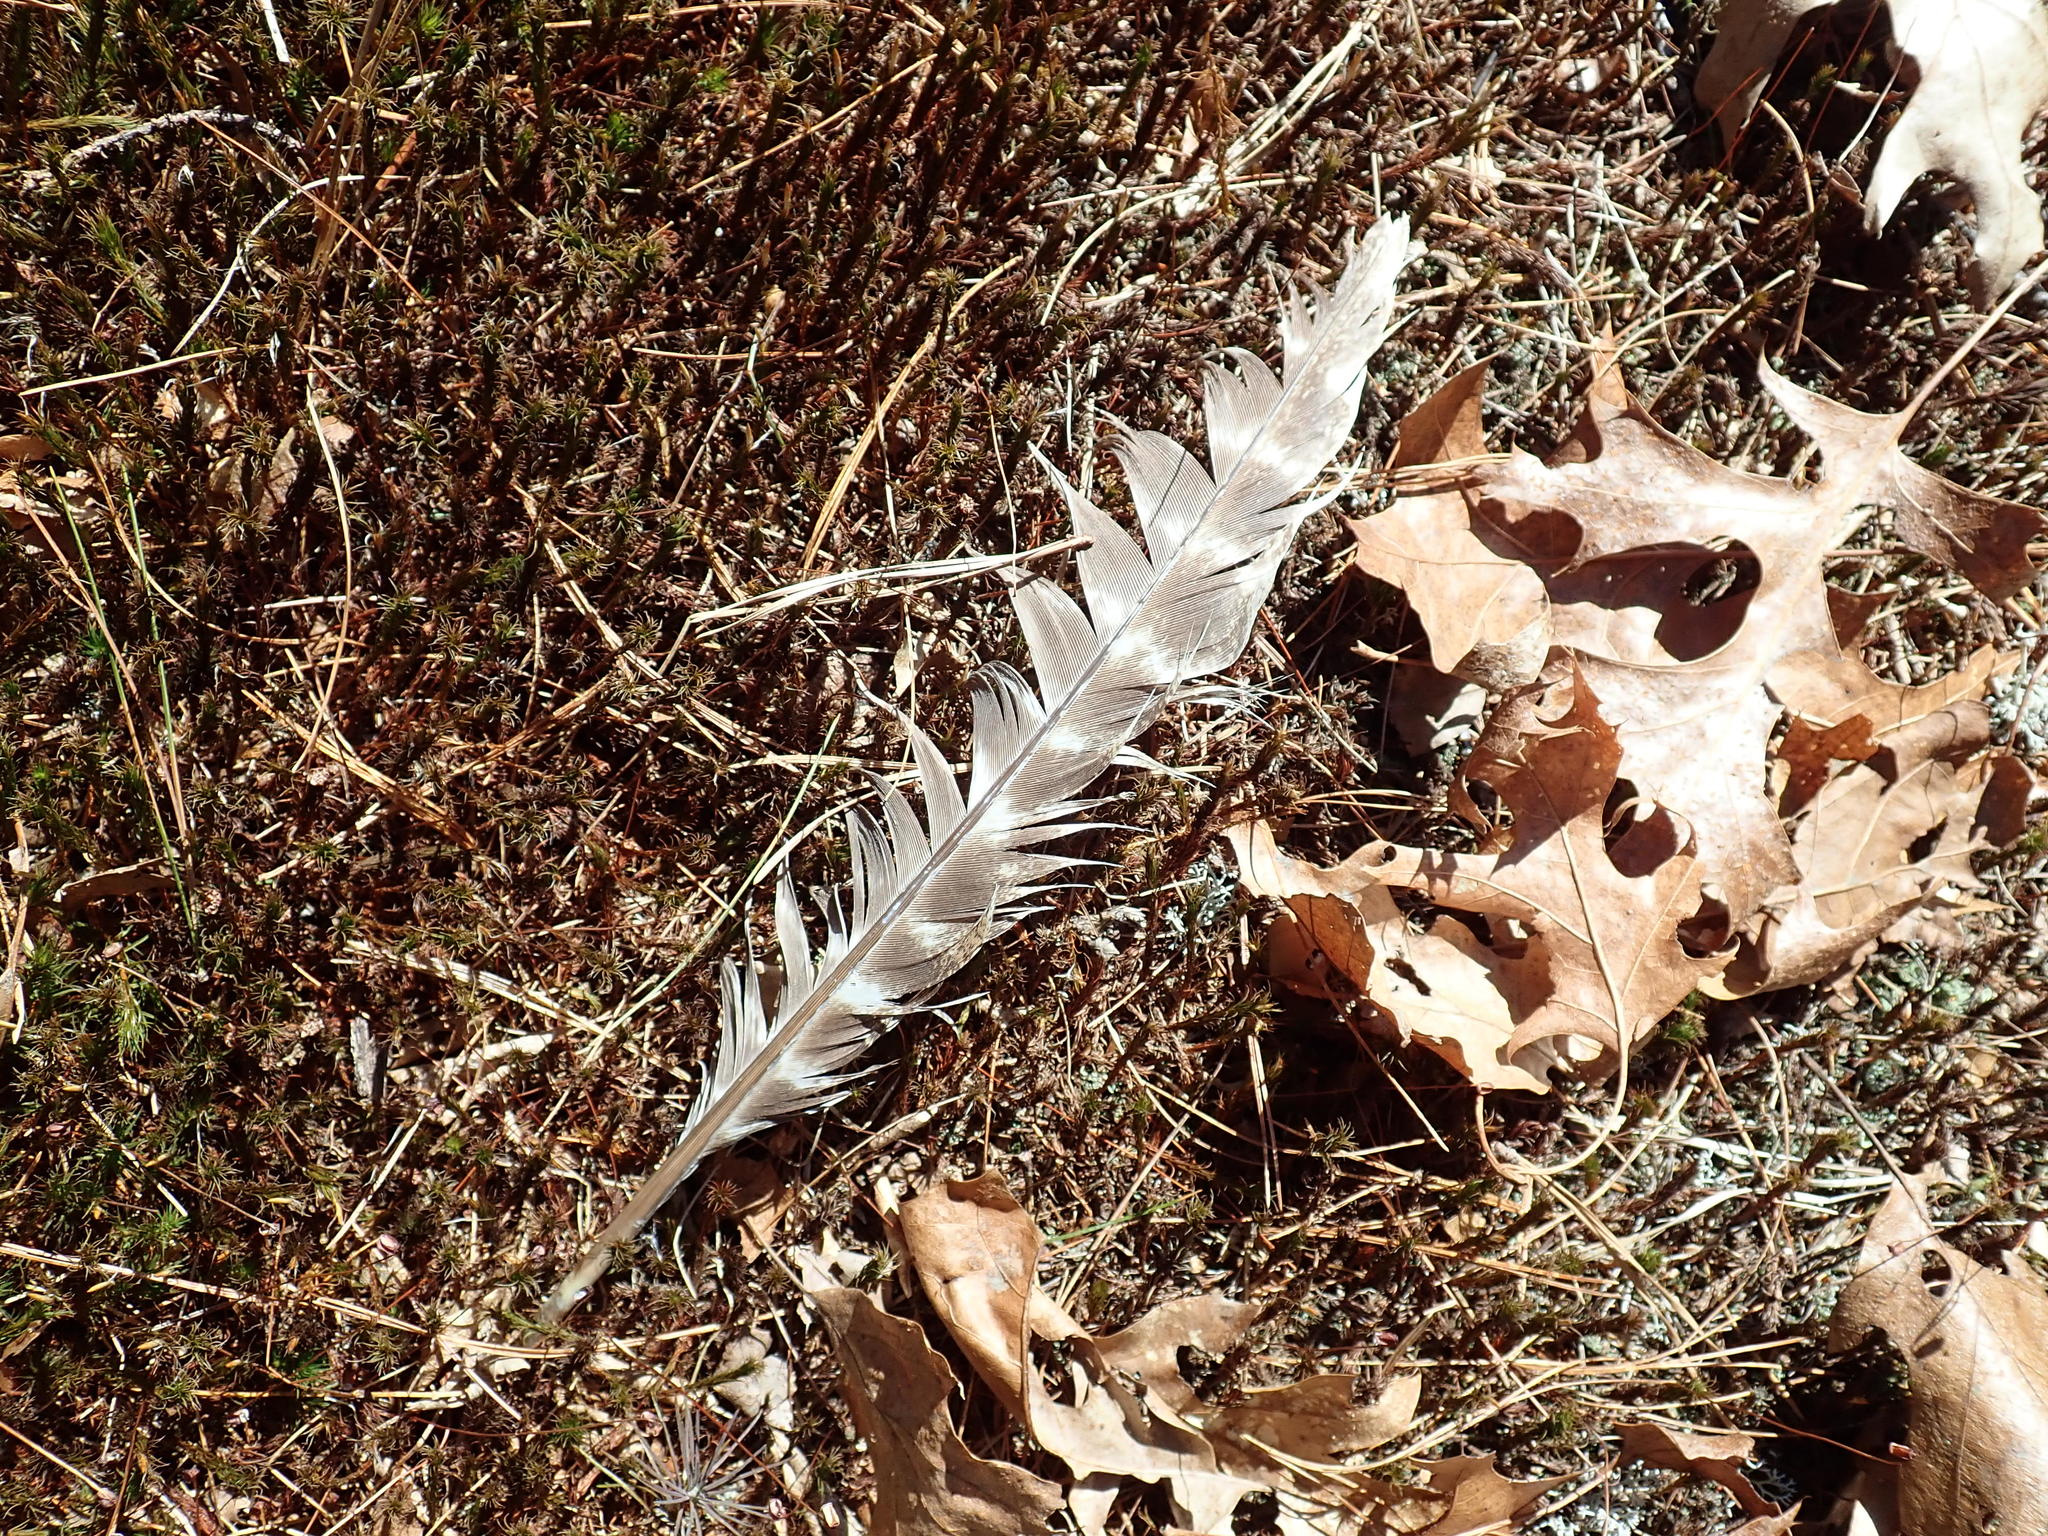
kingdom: Animalia
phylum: Chordata
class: Aves
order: Galliformes
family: Phasianidae
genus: Meleagris
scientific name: Meleagris gallopavo
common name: Wild turkey
